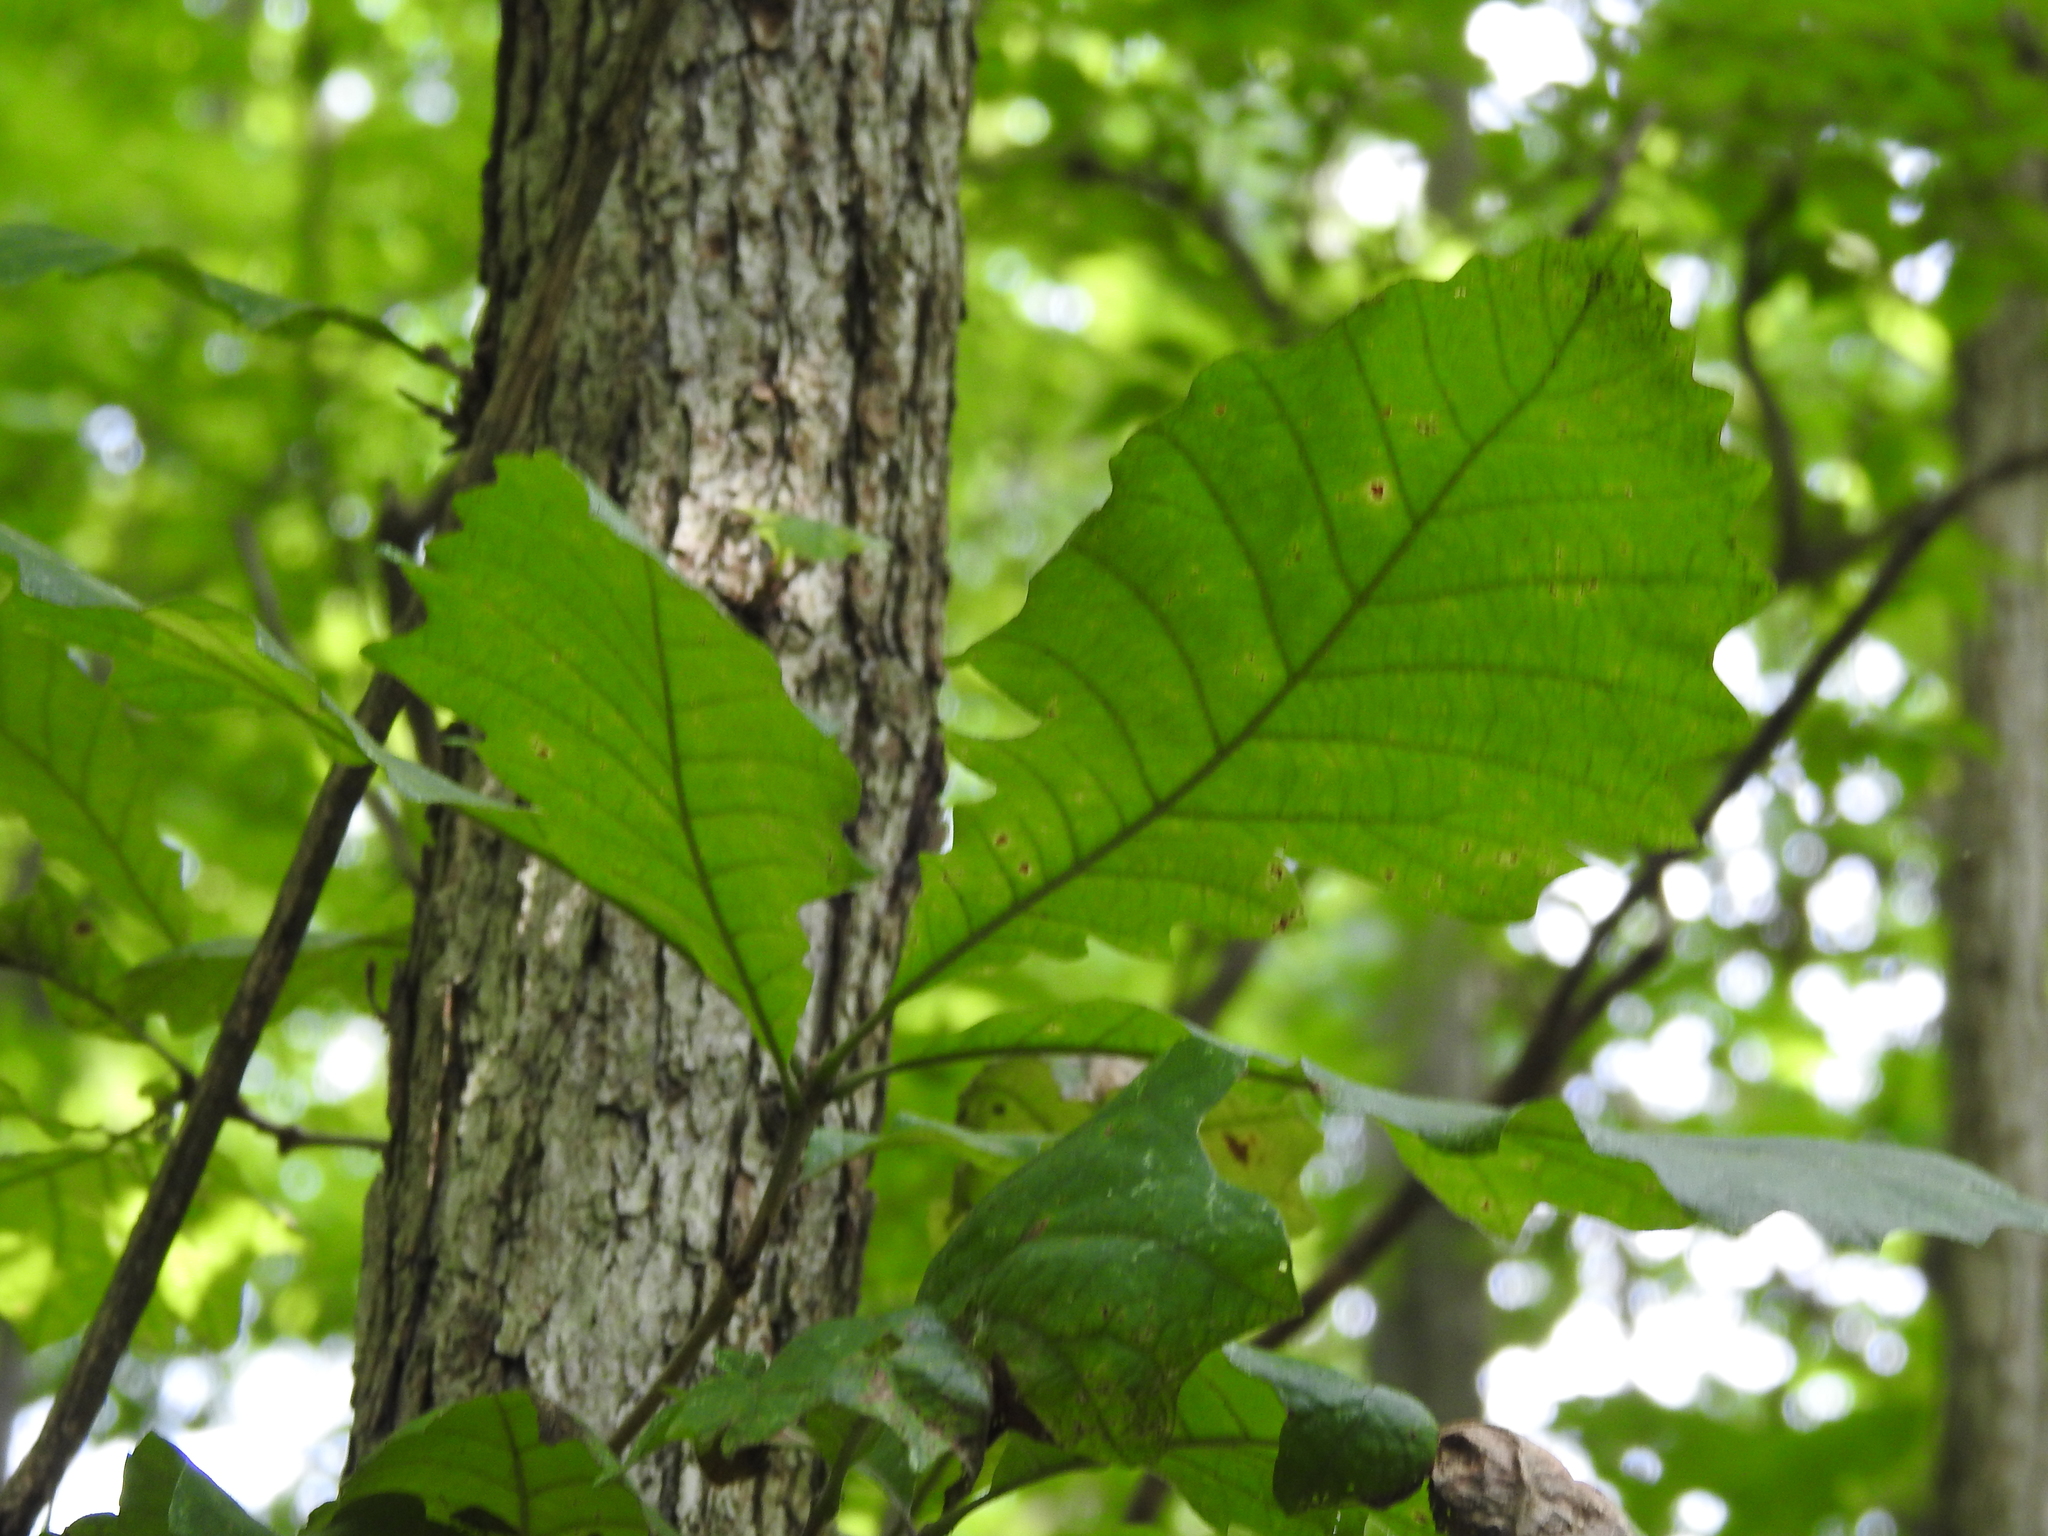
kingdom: Plantae
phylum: Tracheophyta
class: Magnoliopsida
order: Fagales
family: Fagaceae
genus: Quercus
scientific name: Quercus muehlenbergii
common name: Chinkapin oak
